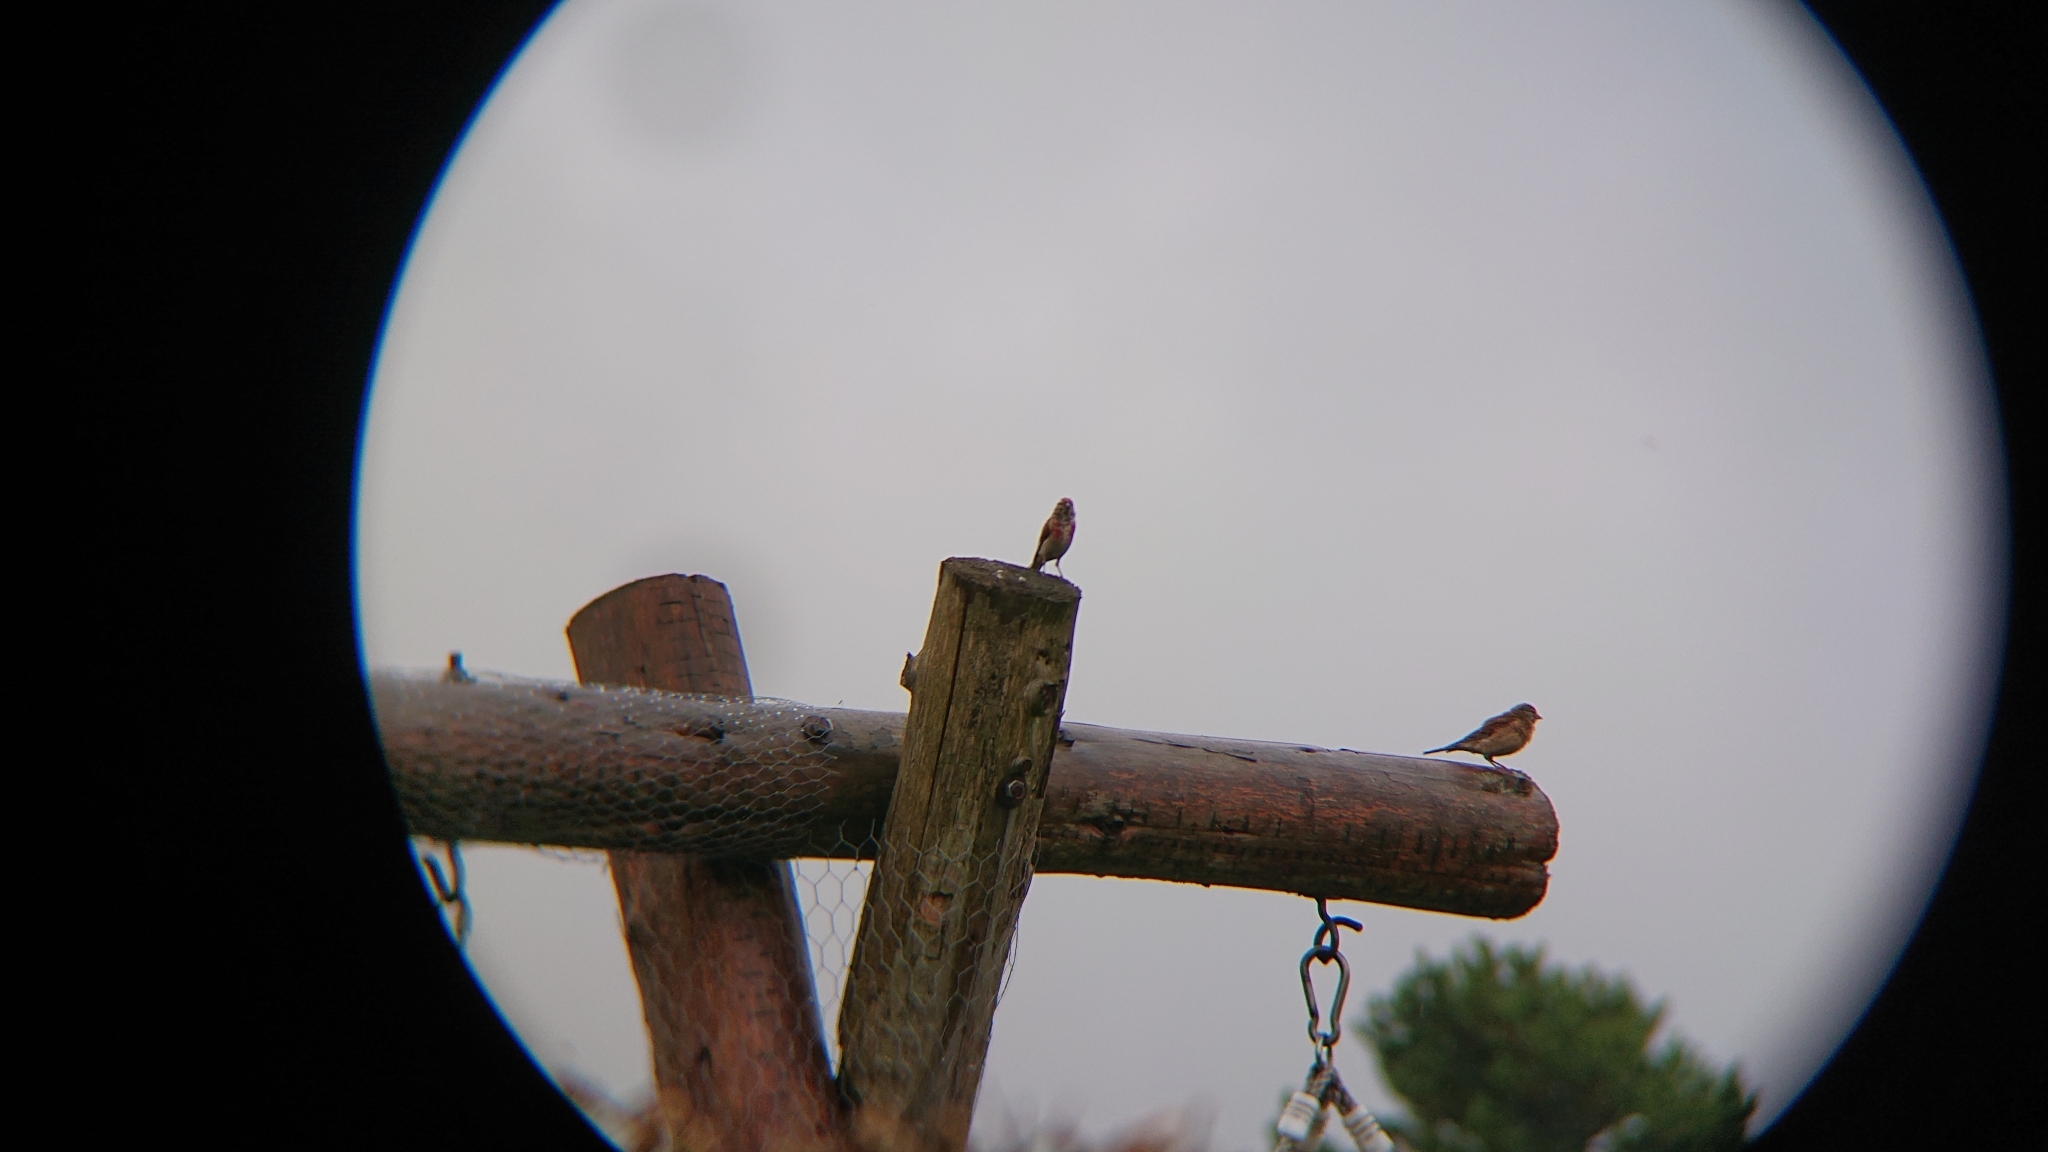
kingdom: Animalia
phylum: Chordata
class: Aves
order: Passeriformes
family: Fringillidae
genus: Linaria
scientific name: Linaria cannabina
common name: Common linnet
